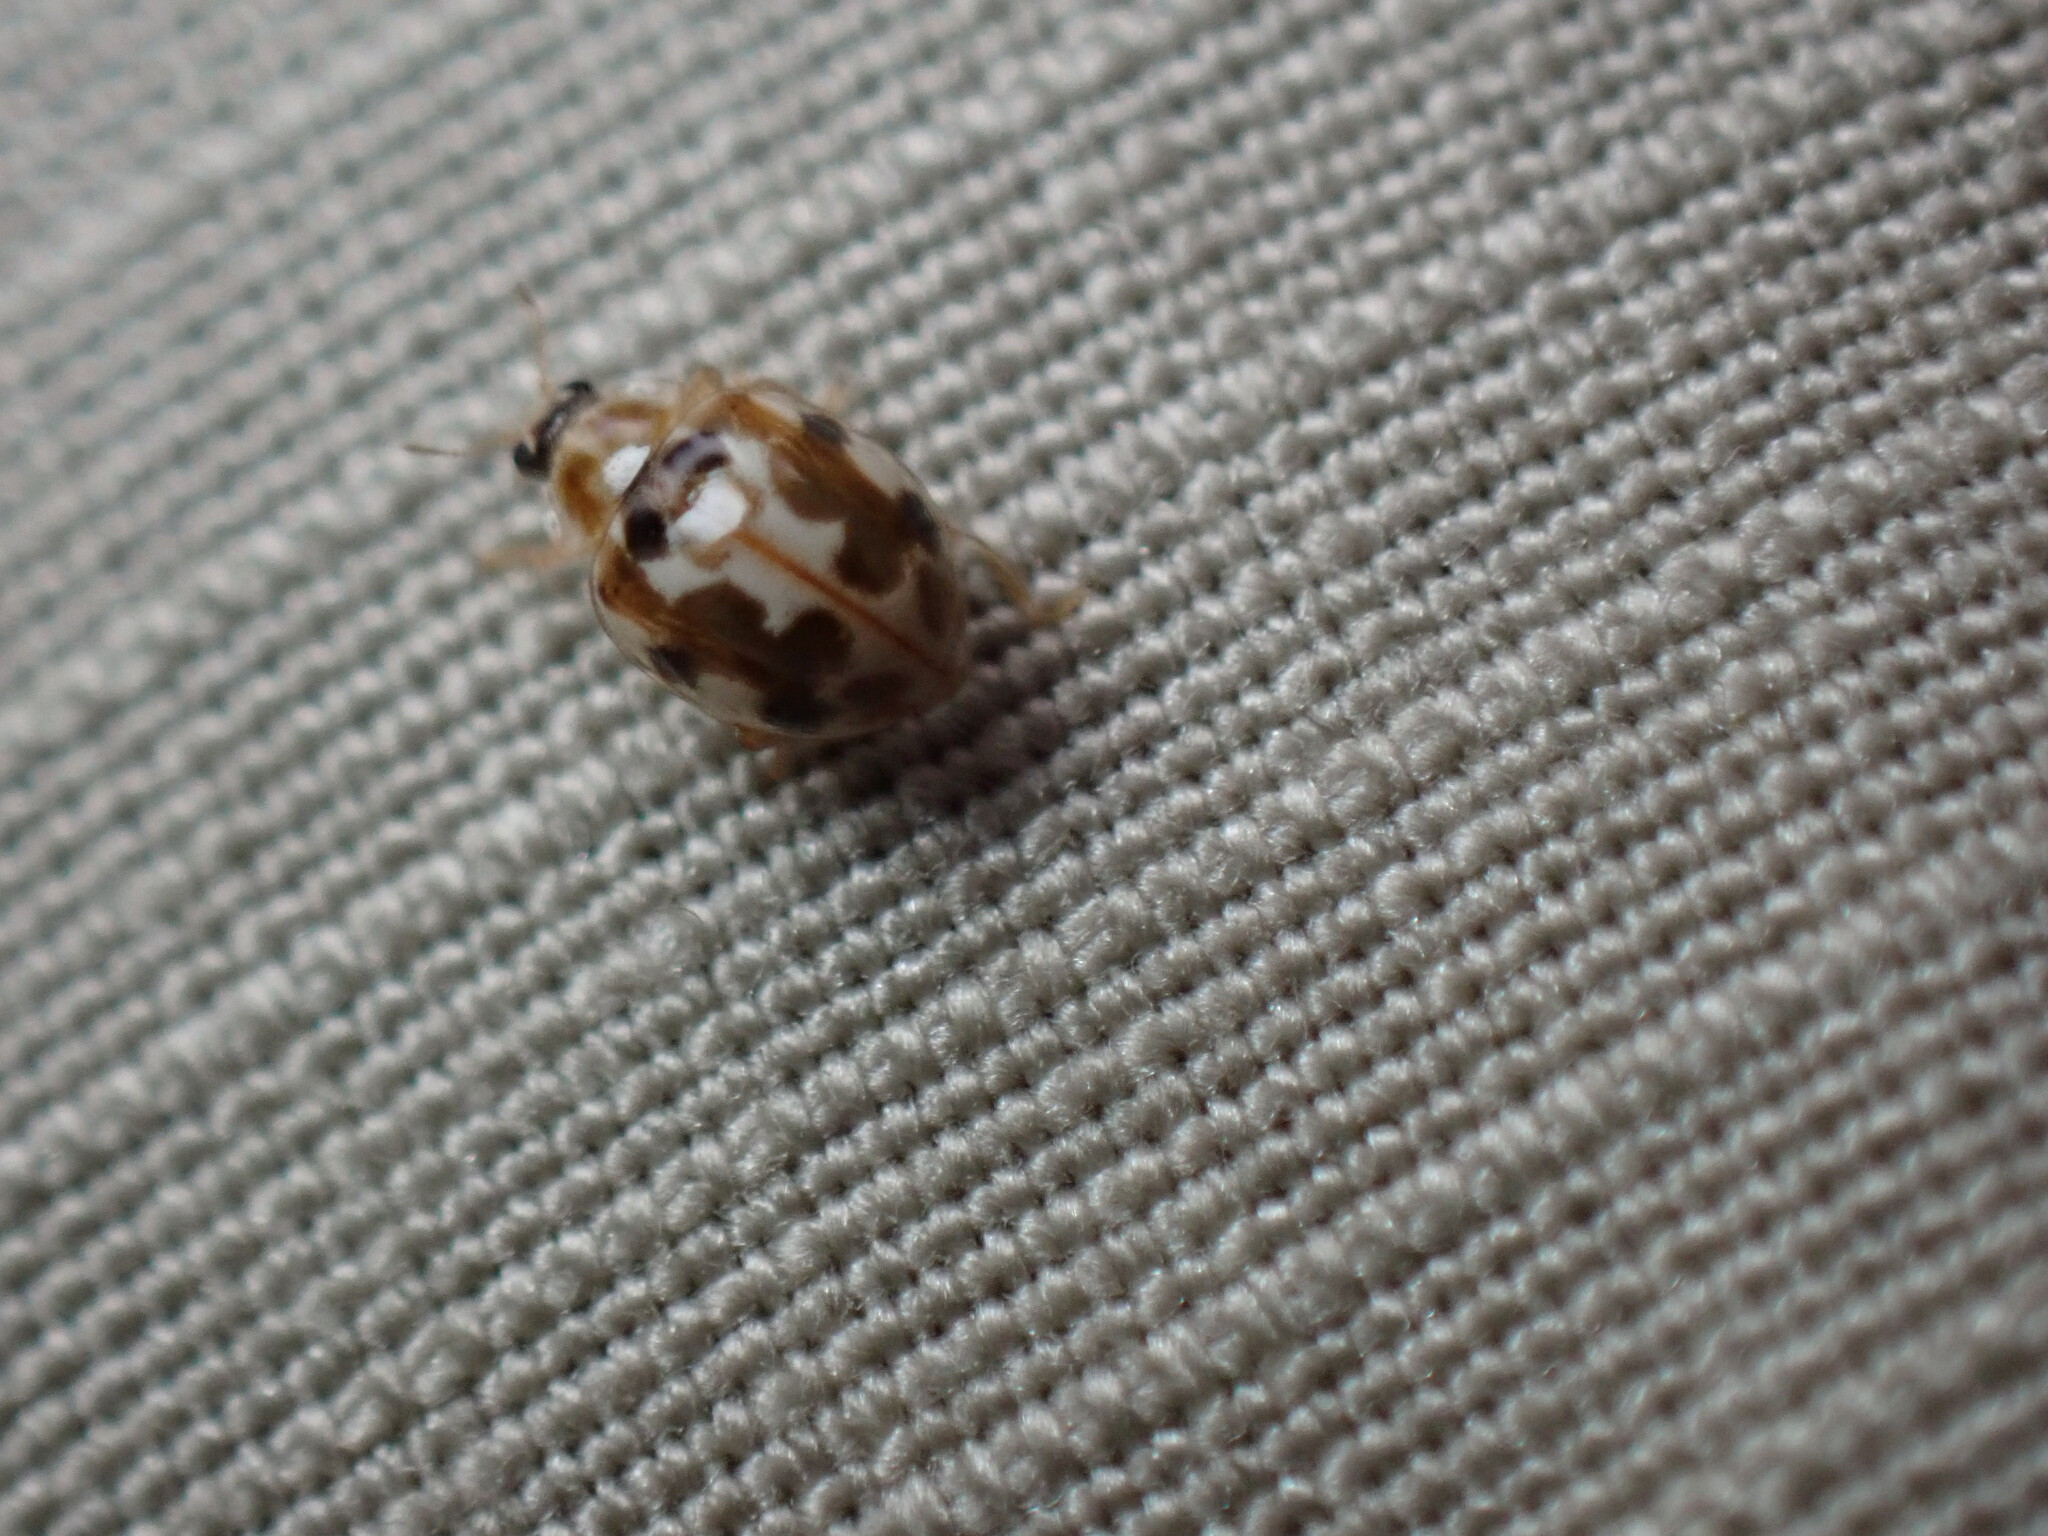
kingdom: Animalia
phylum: Arthropoda
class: Insecta
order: Coleoptera
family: Coccinellidae
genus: Psyllobora
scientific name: Psyllobora vigintimaculata
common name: Ladybird beetle
